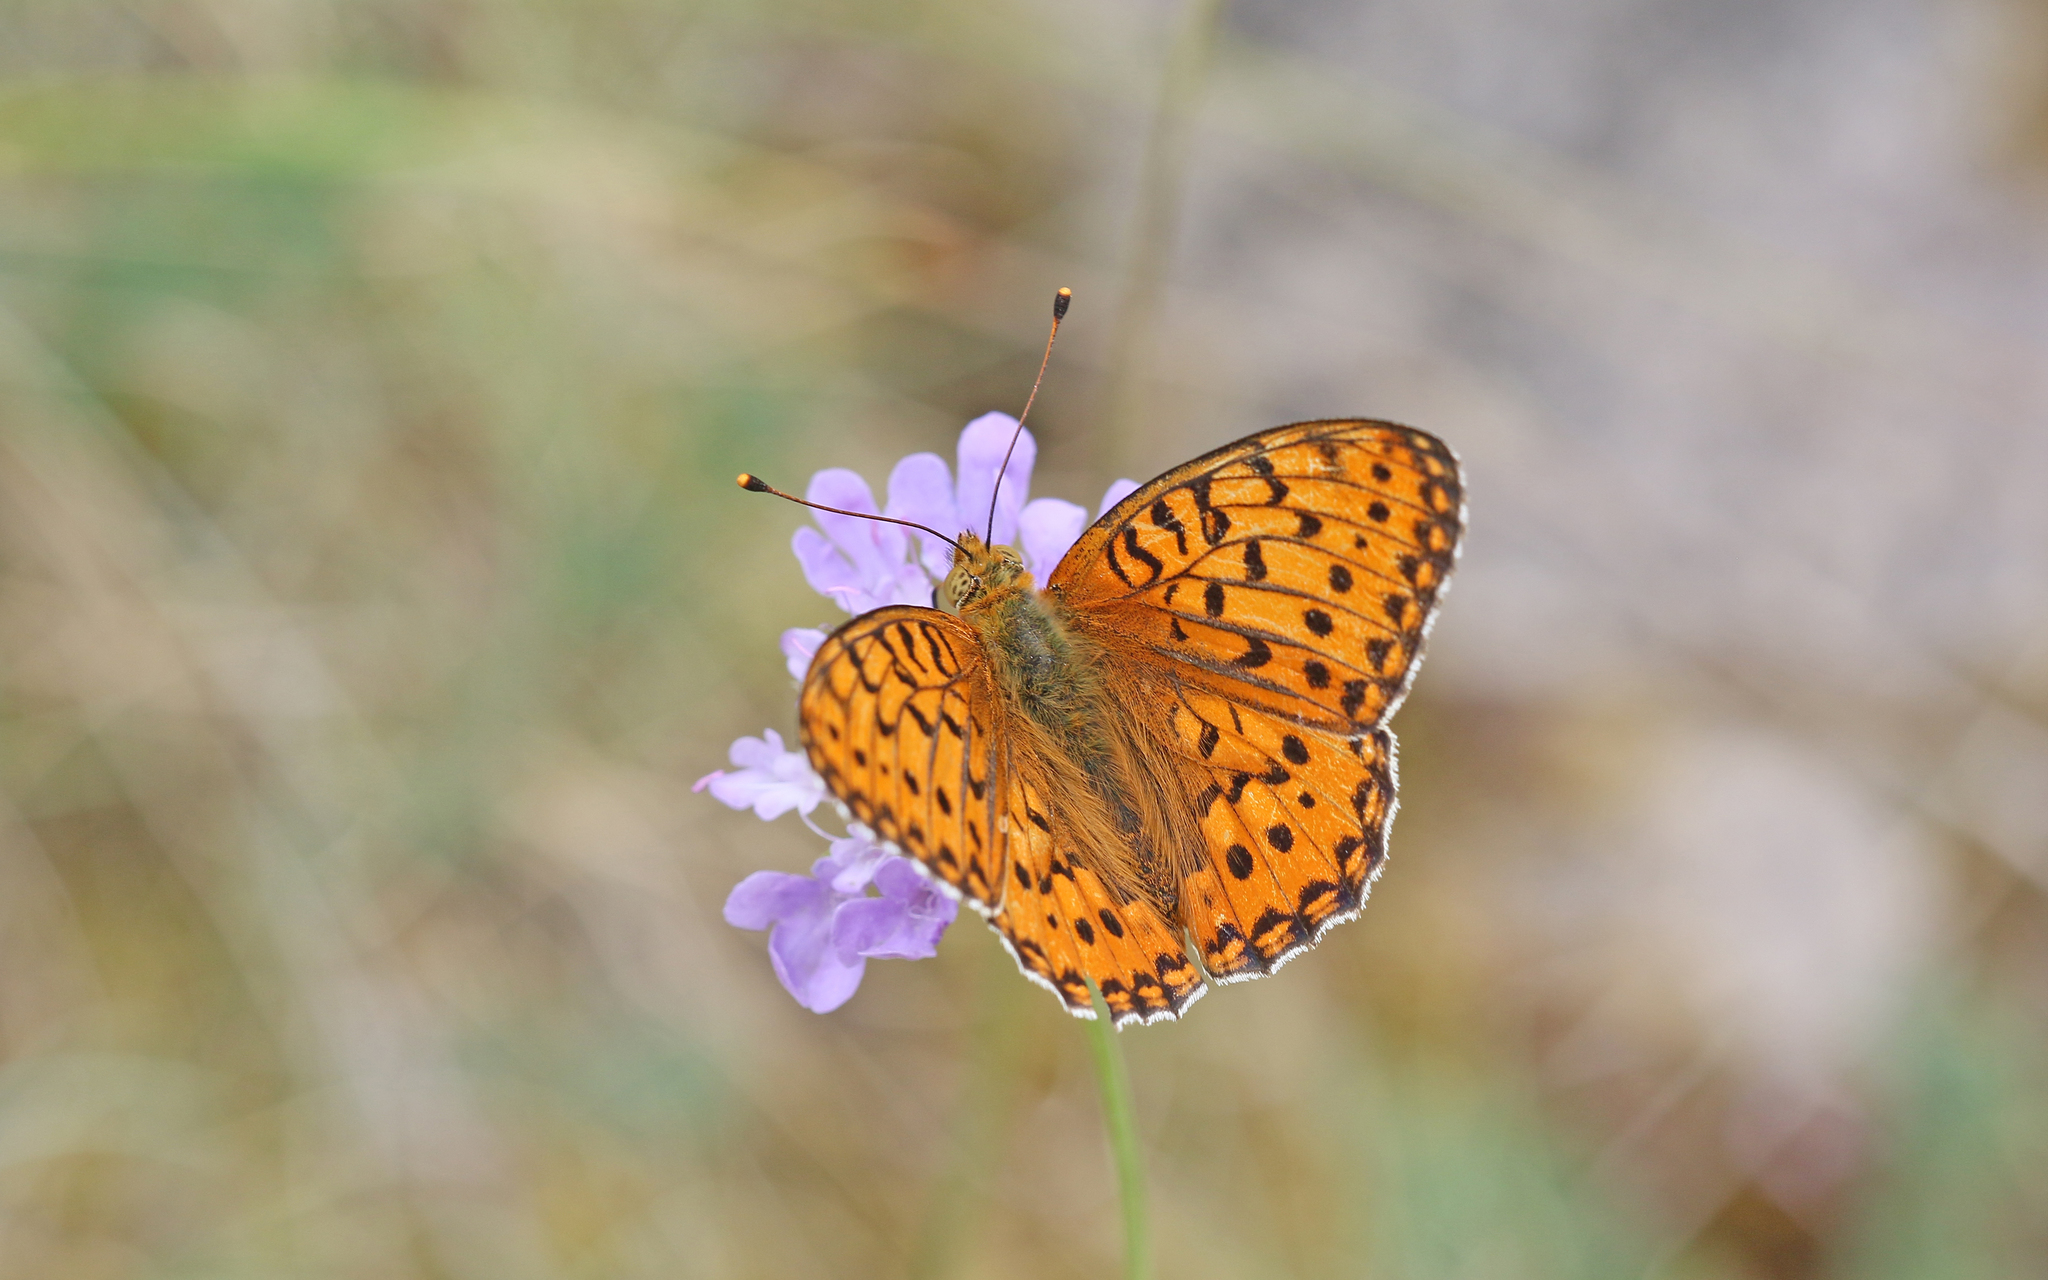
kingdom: Animalia
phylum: Arthropoda
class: Insecta
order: Lepidoptera
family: Nymphalidae
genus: Speyeria
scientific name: Speyeria aglaja
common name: Dark green fritillary
